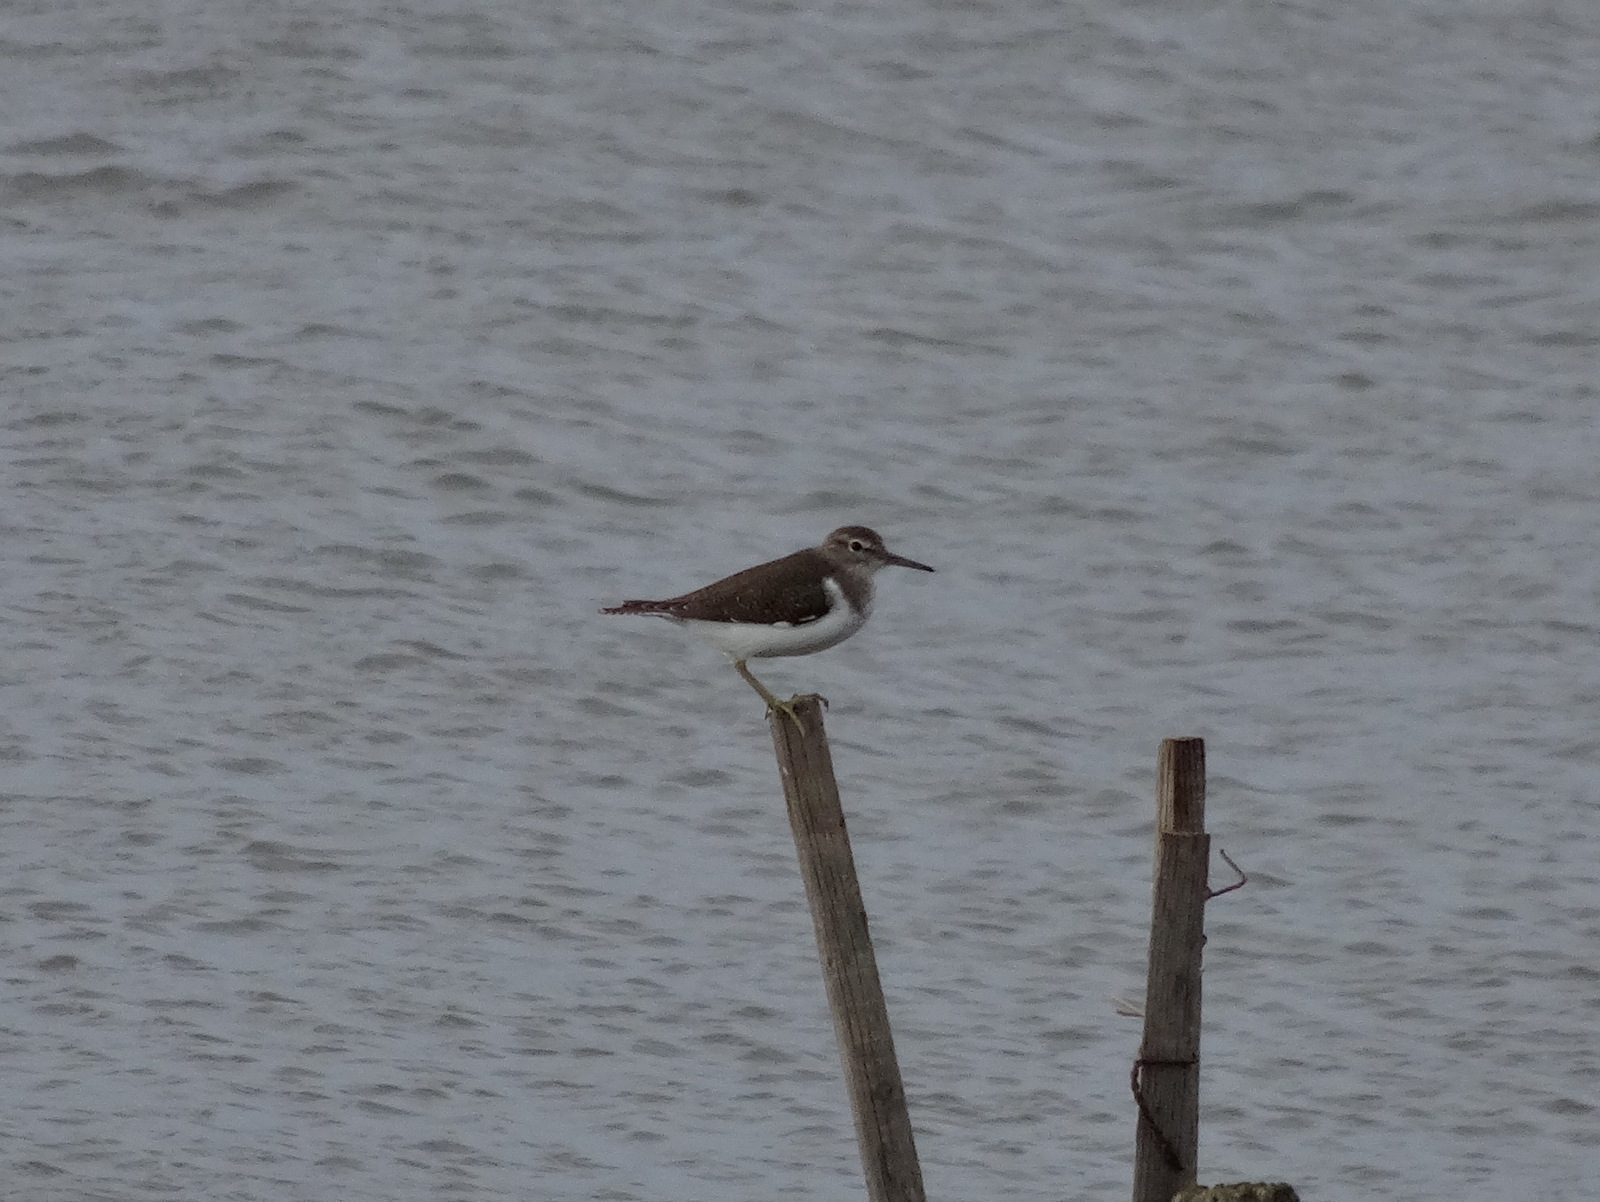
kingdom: Animalia
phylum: Chordata
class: Aves
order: Charadriiformes
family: Scolopacidae
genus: Actitis
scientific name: Actitis hypoleucos
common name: Common sandpiper
